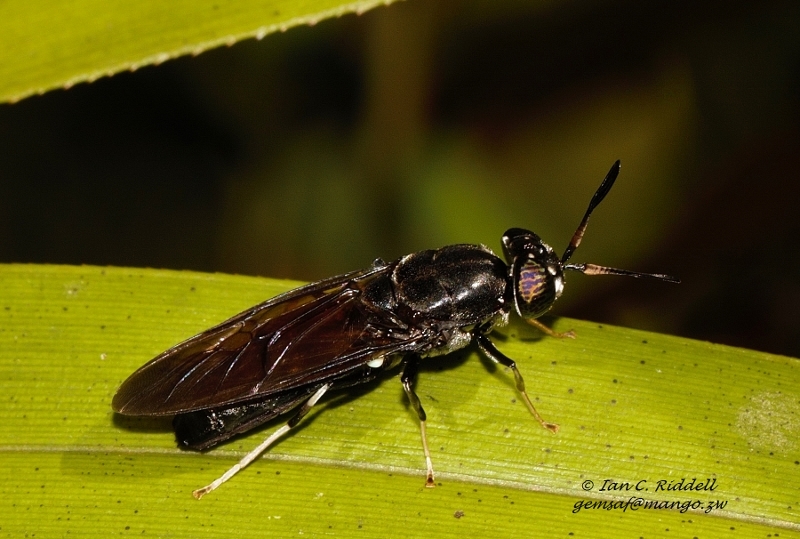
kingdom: Animalia
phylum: Arthropoda
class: Insecta
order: Diptera
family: Stratiomyidae
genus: Hermetia
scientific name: Hermetia illucens
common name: Black soldier fly
